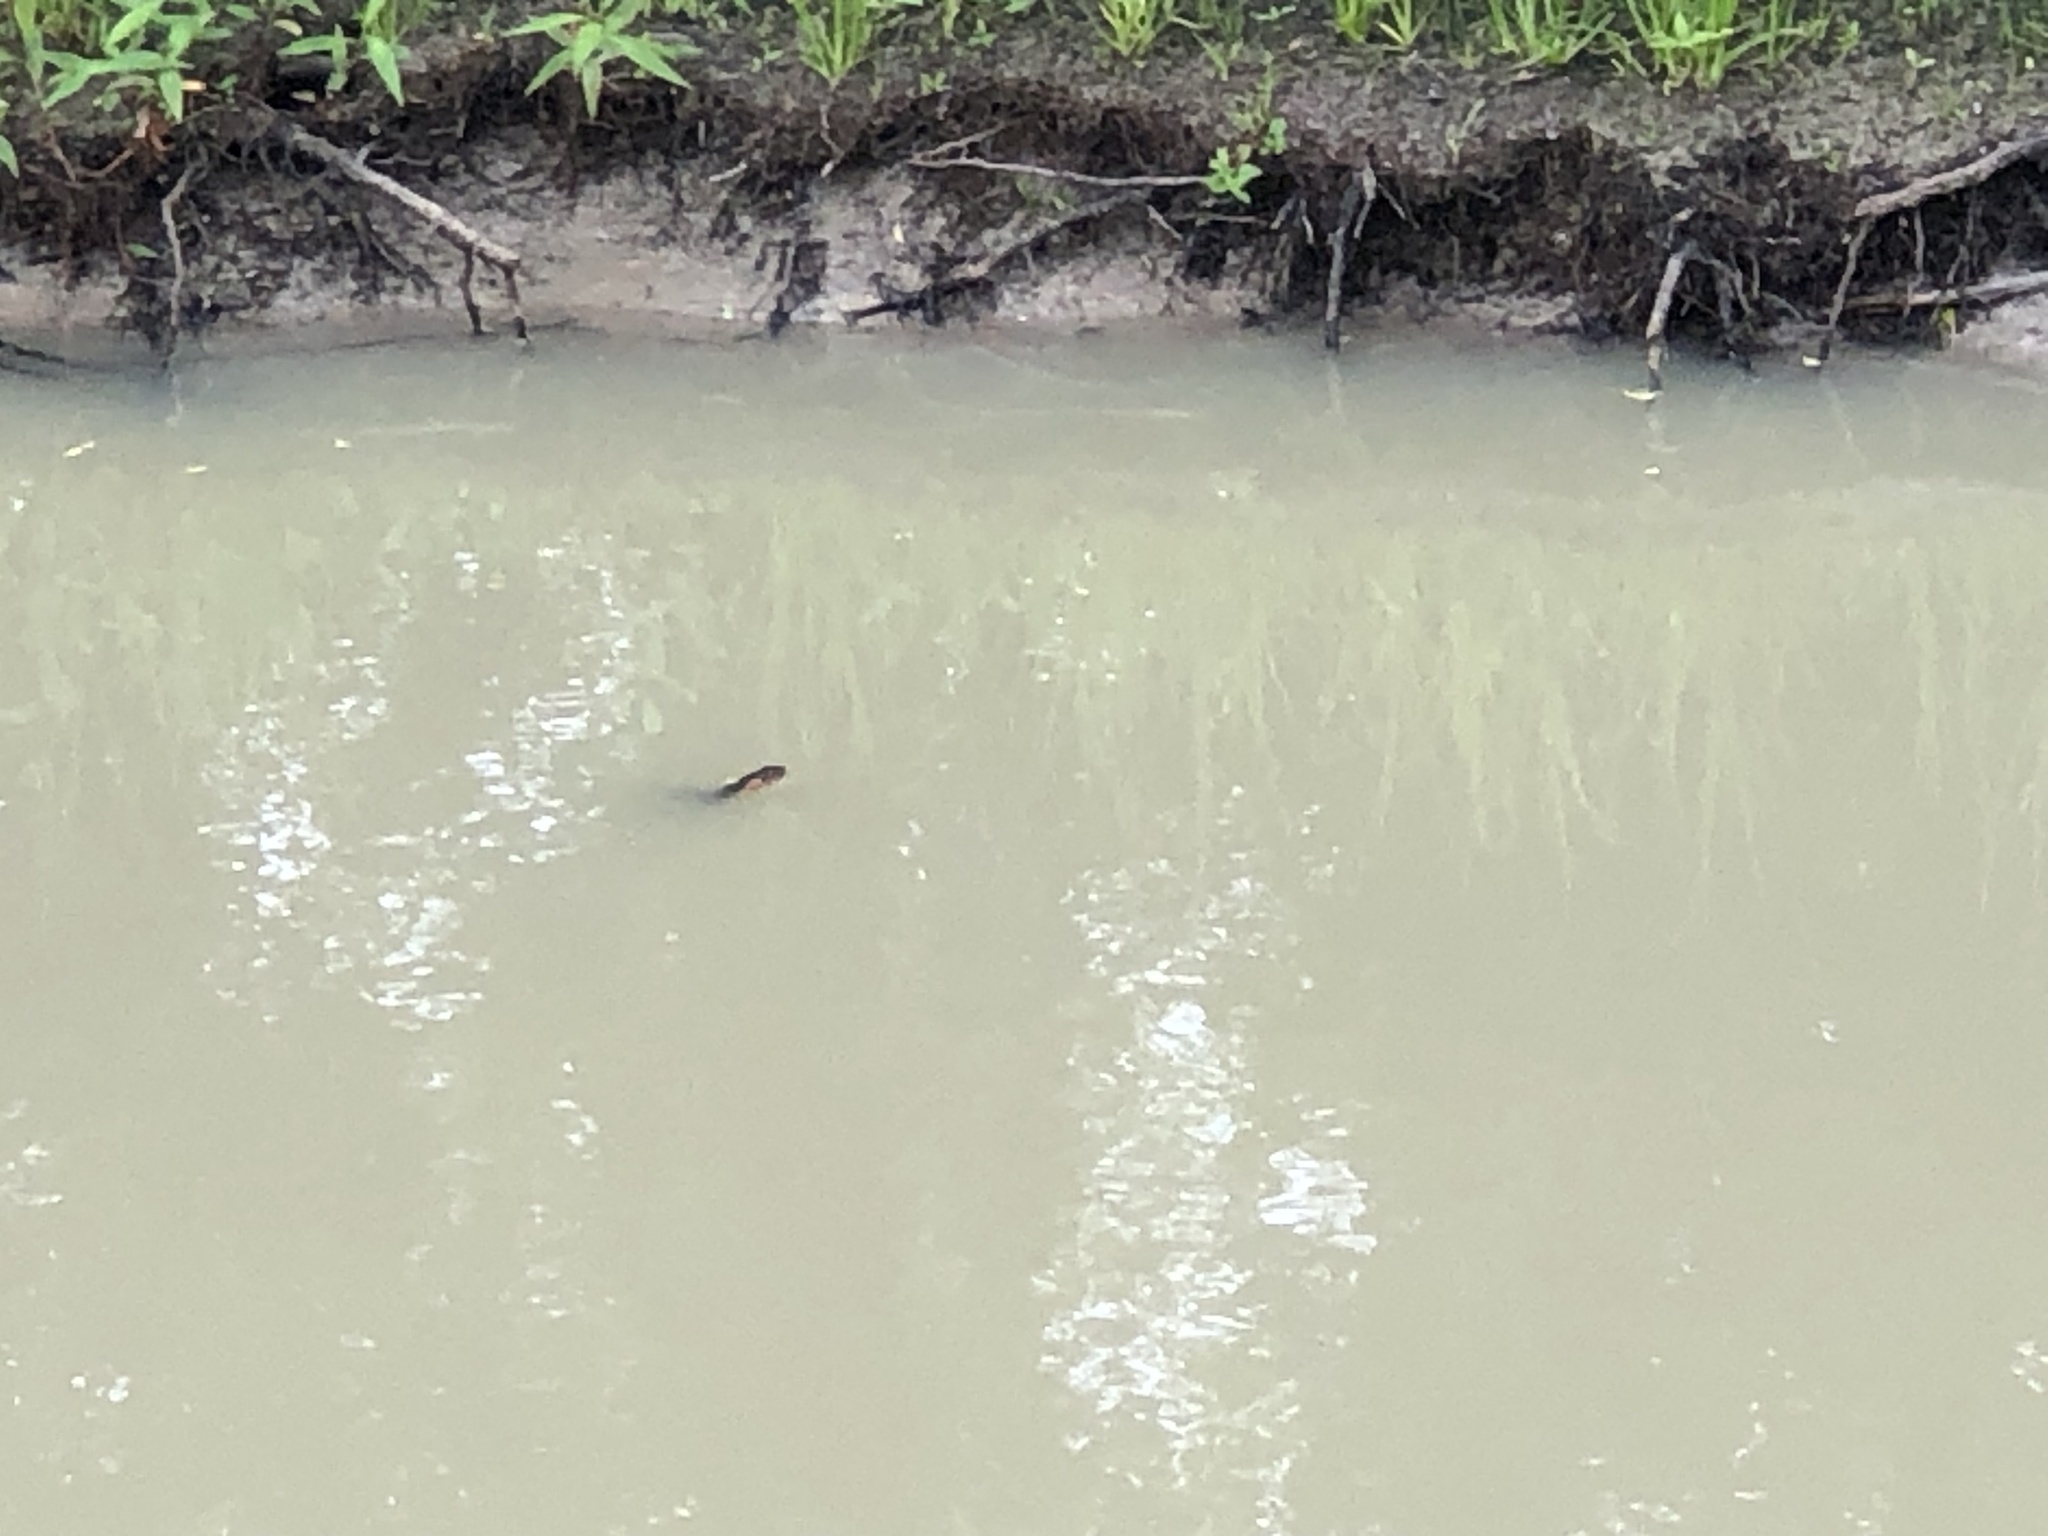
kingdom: Animalia
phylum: Chordata
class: Squamata
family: Colubridae
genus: Nerodia
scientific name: Nerodia fasciata
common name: Southern water snake
